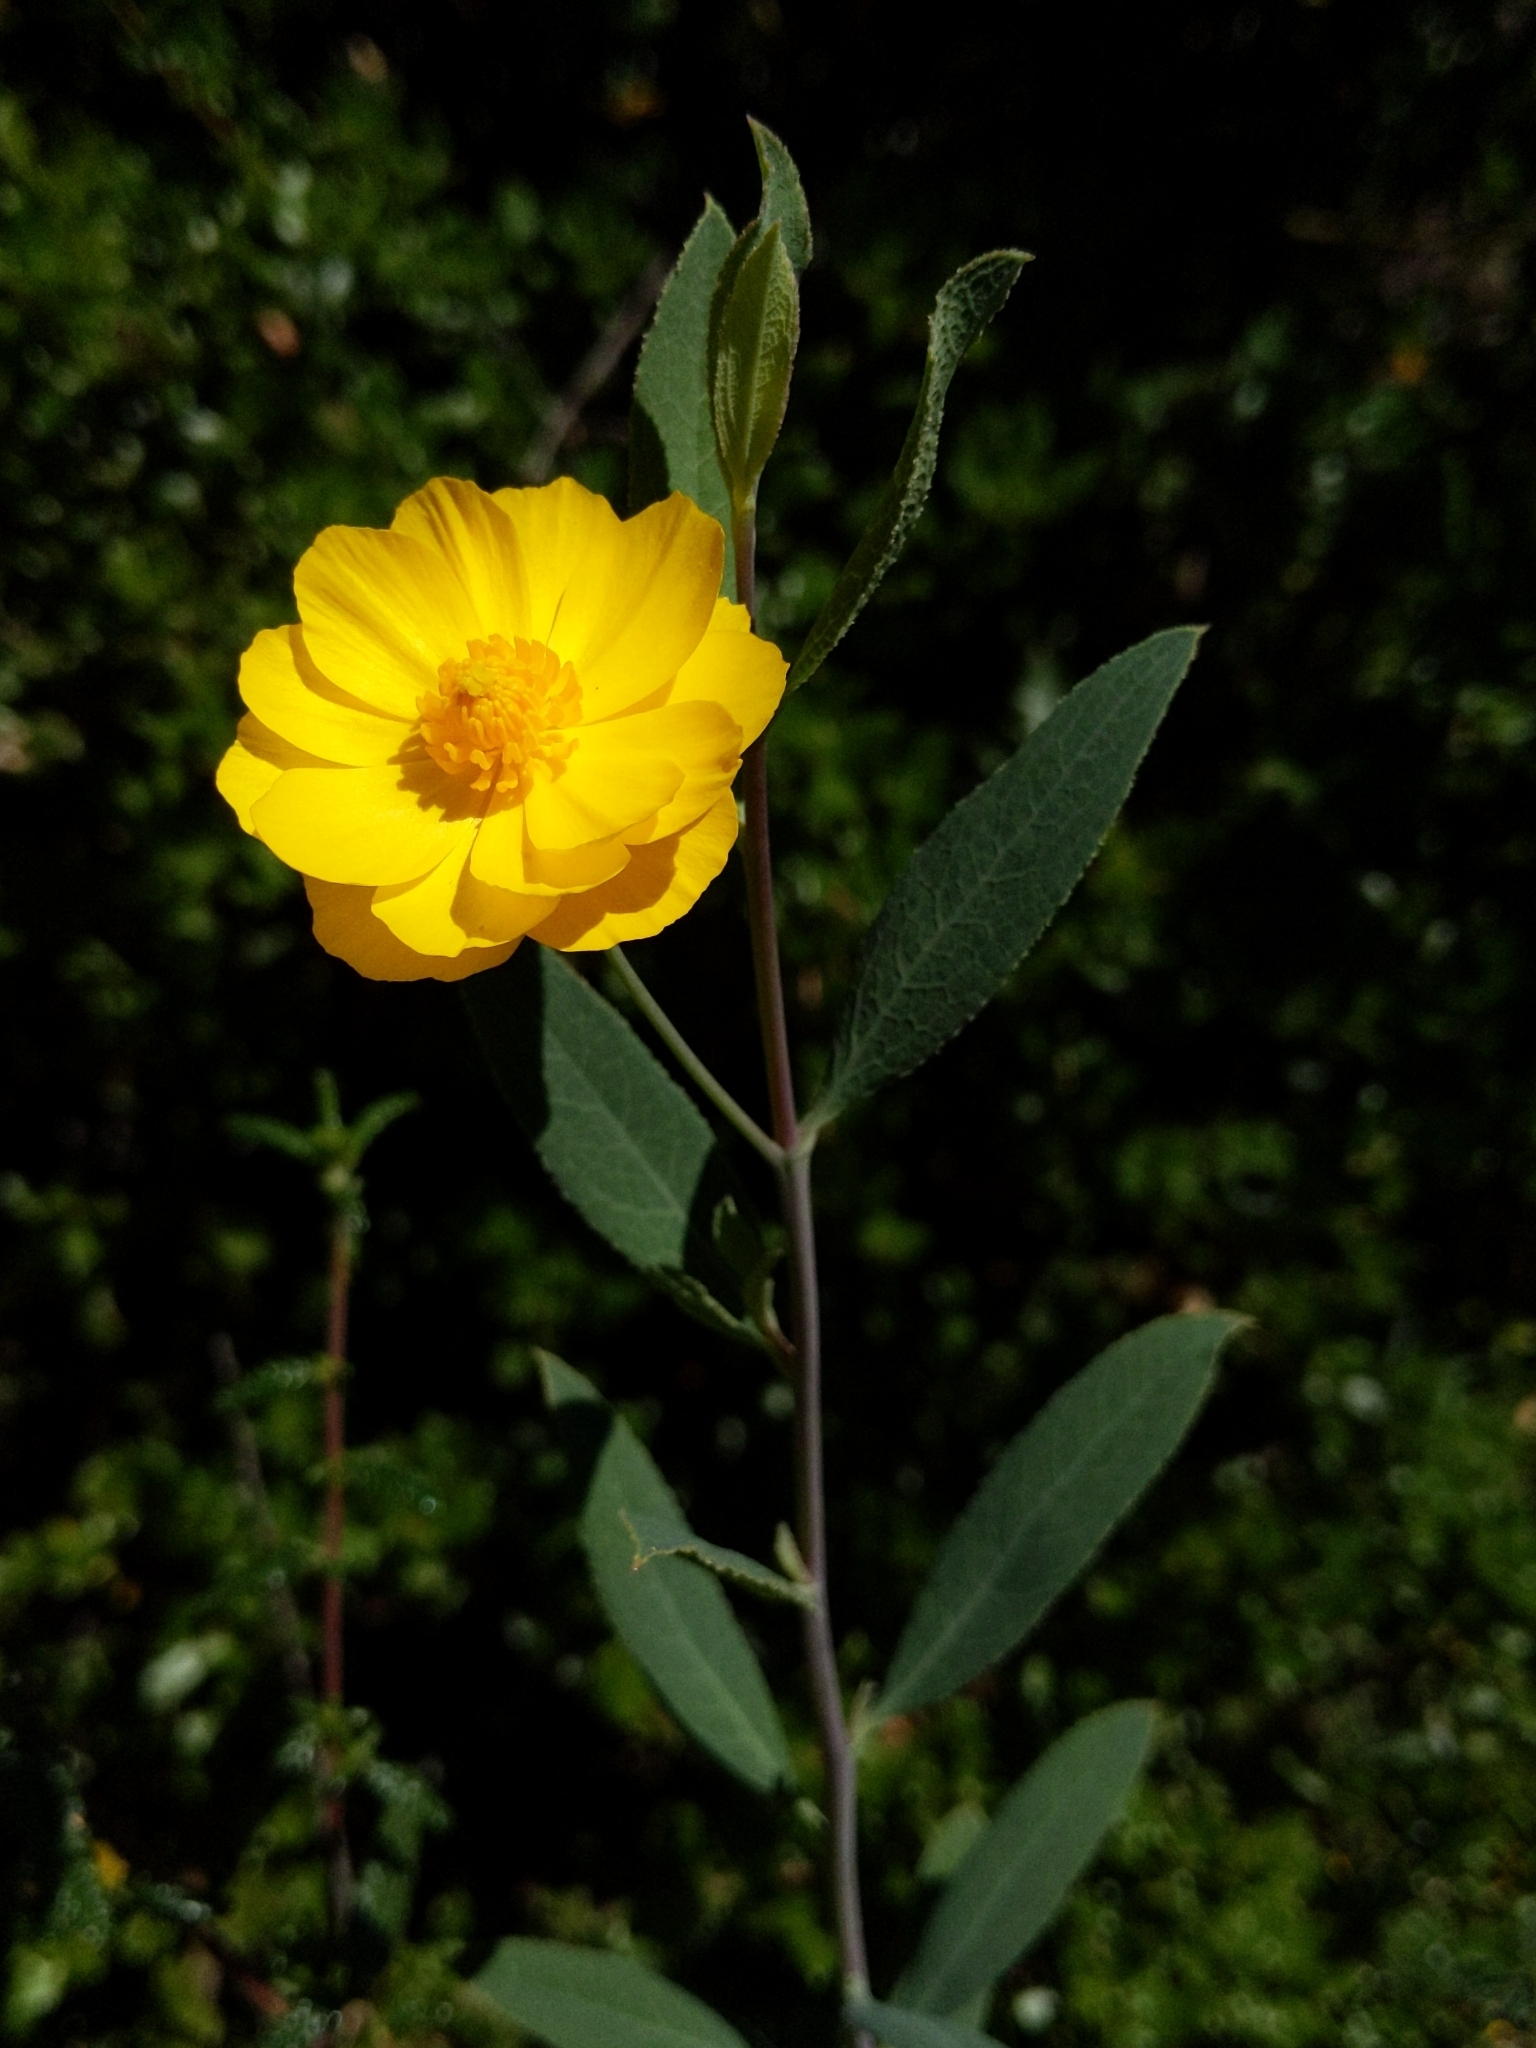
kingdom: Plantae
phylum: Tracheophyta
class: Magnoliopsida
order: Ranunculales
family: Papaveraceae
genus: Dendromecon
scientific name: Dendromecon rigida
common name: Tree poppy
